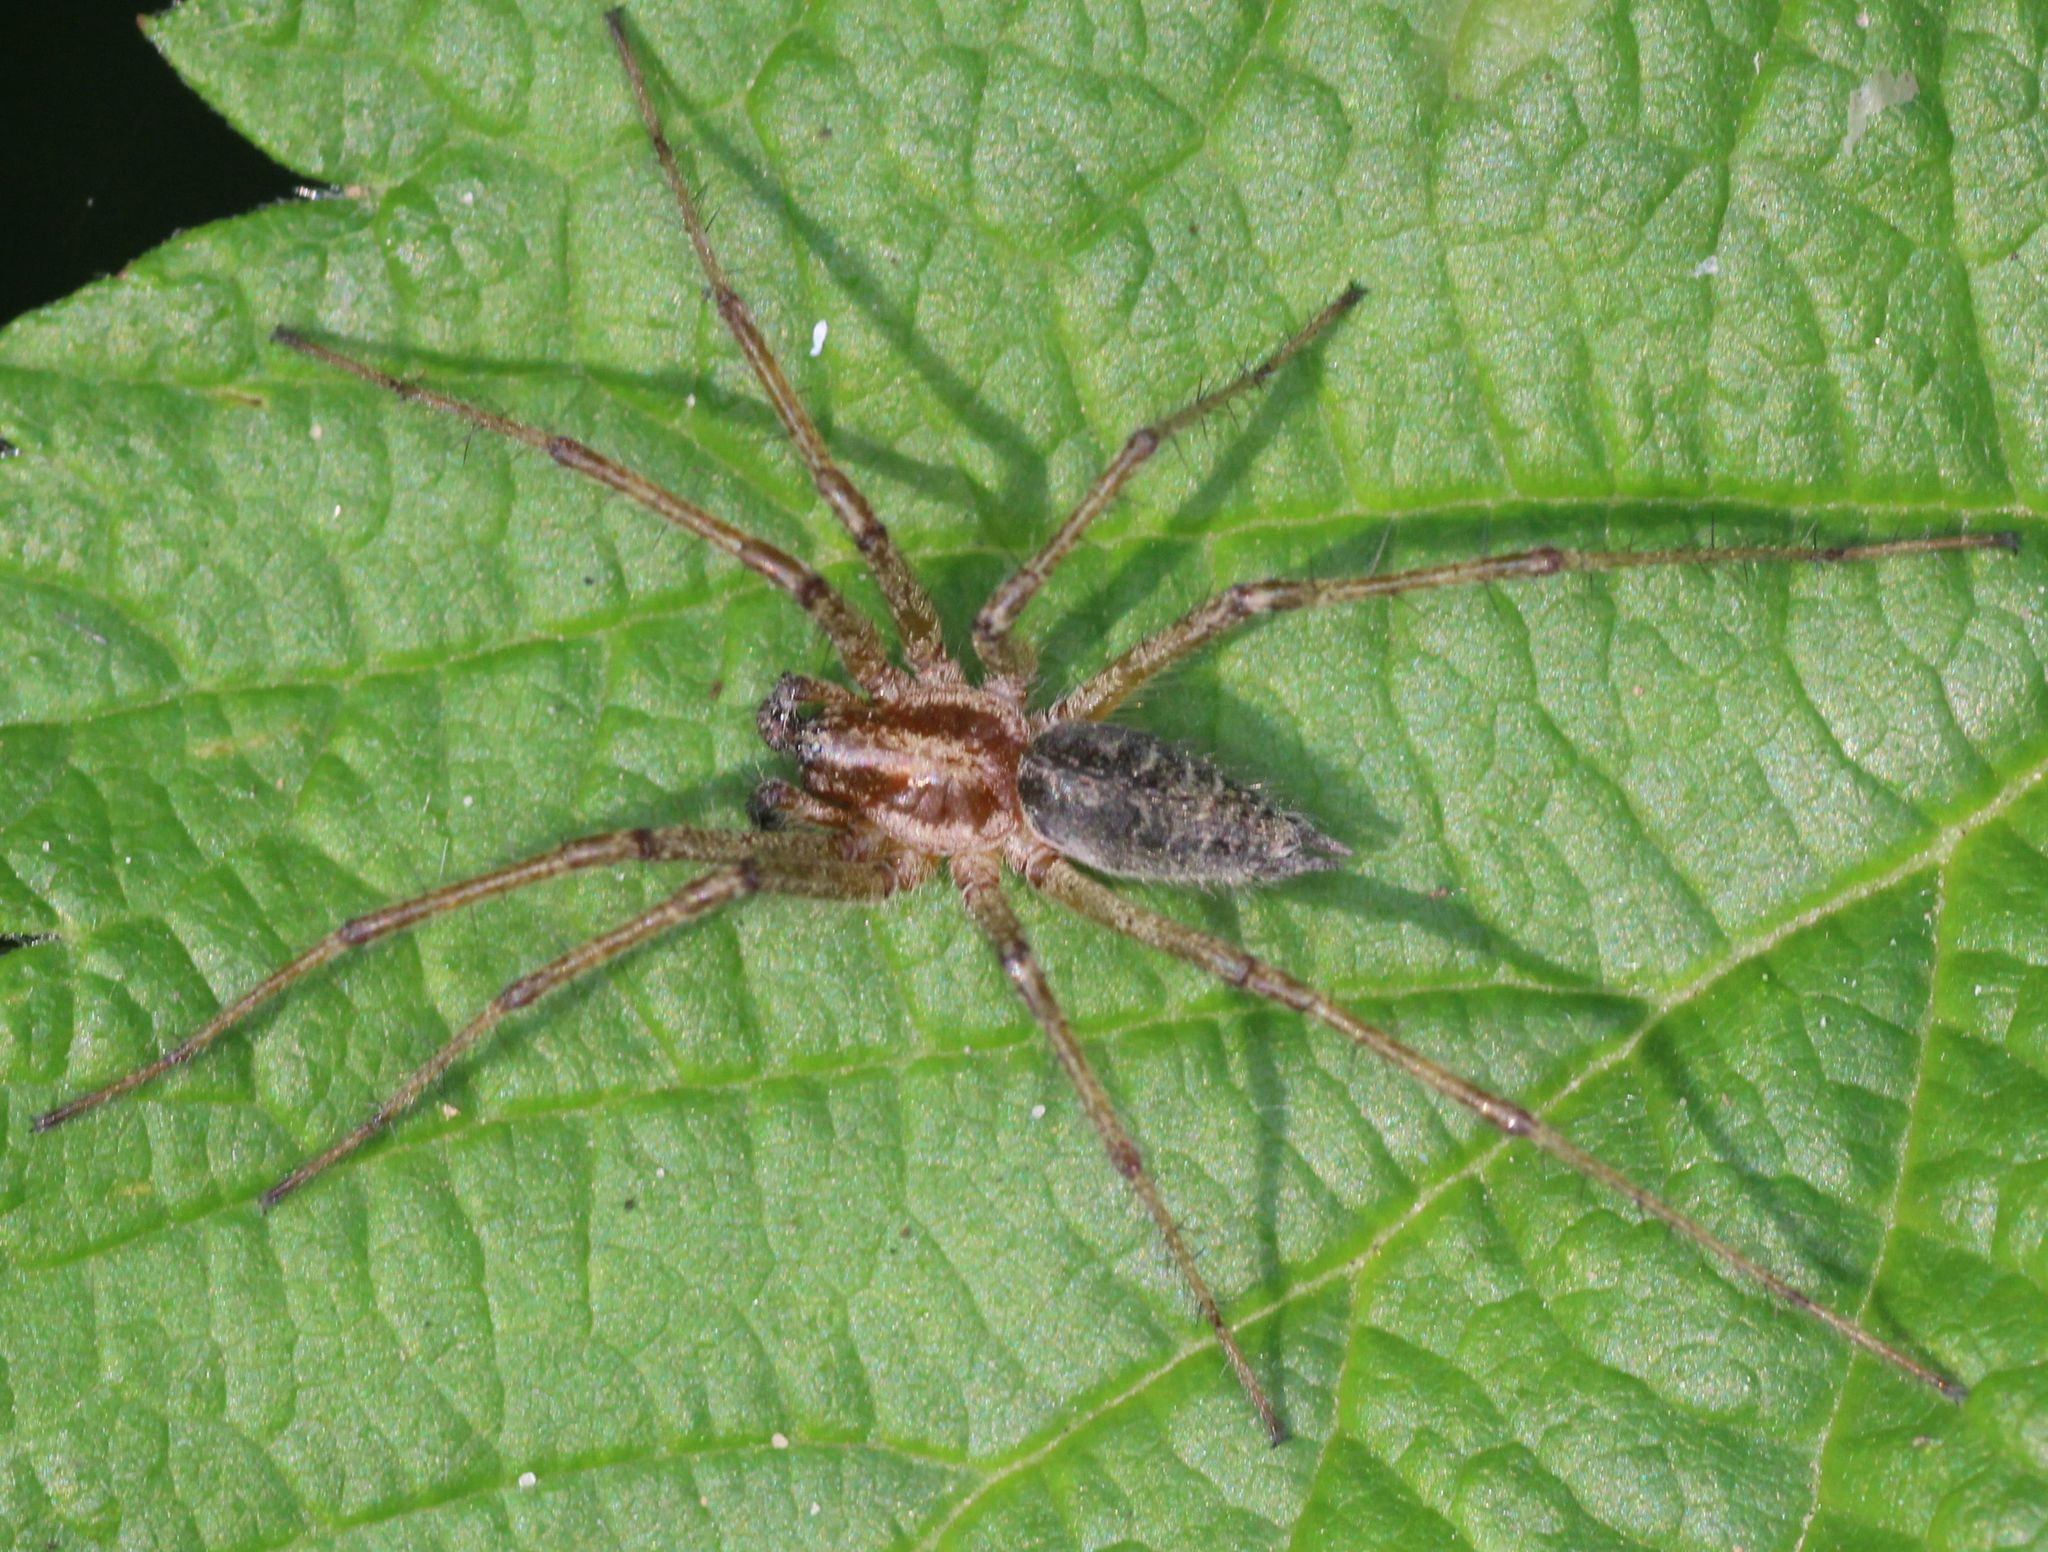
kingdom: Animalia
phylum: Arthropoda
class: Arachnida
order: Araneae
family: Agelenidae
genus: Agelena
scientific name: Agelena labyrinthica
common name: Labyrinth spider
